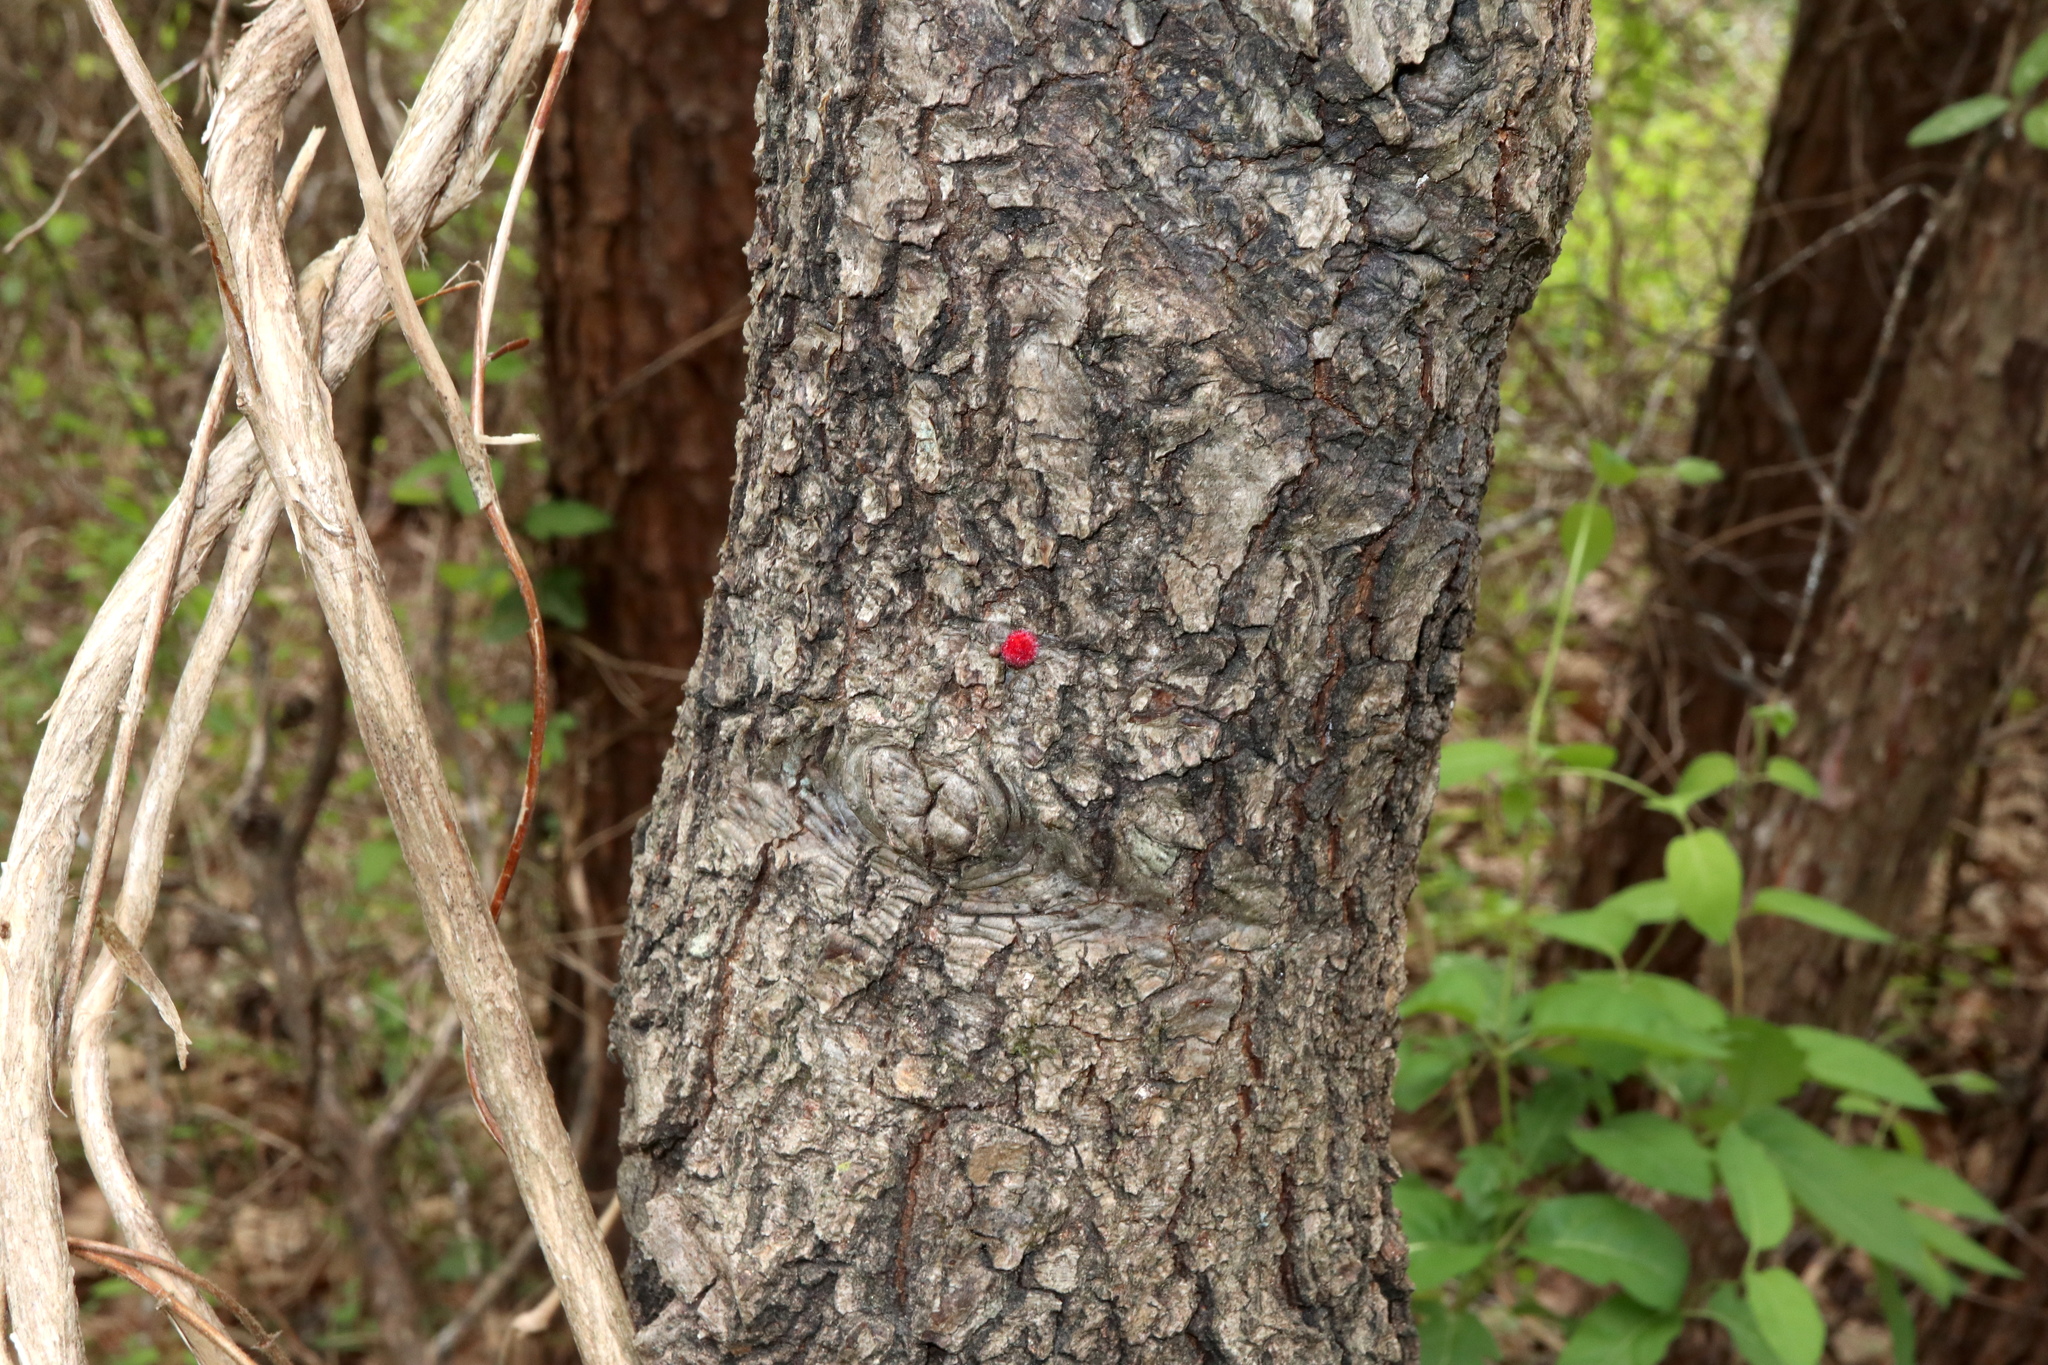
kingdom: Animalia
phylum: Arthropoda
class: Insecta
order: Hymenoptera
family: Cynipidae
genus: Dryocosmus
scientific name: Dryocosmus
